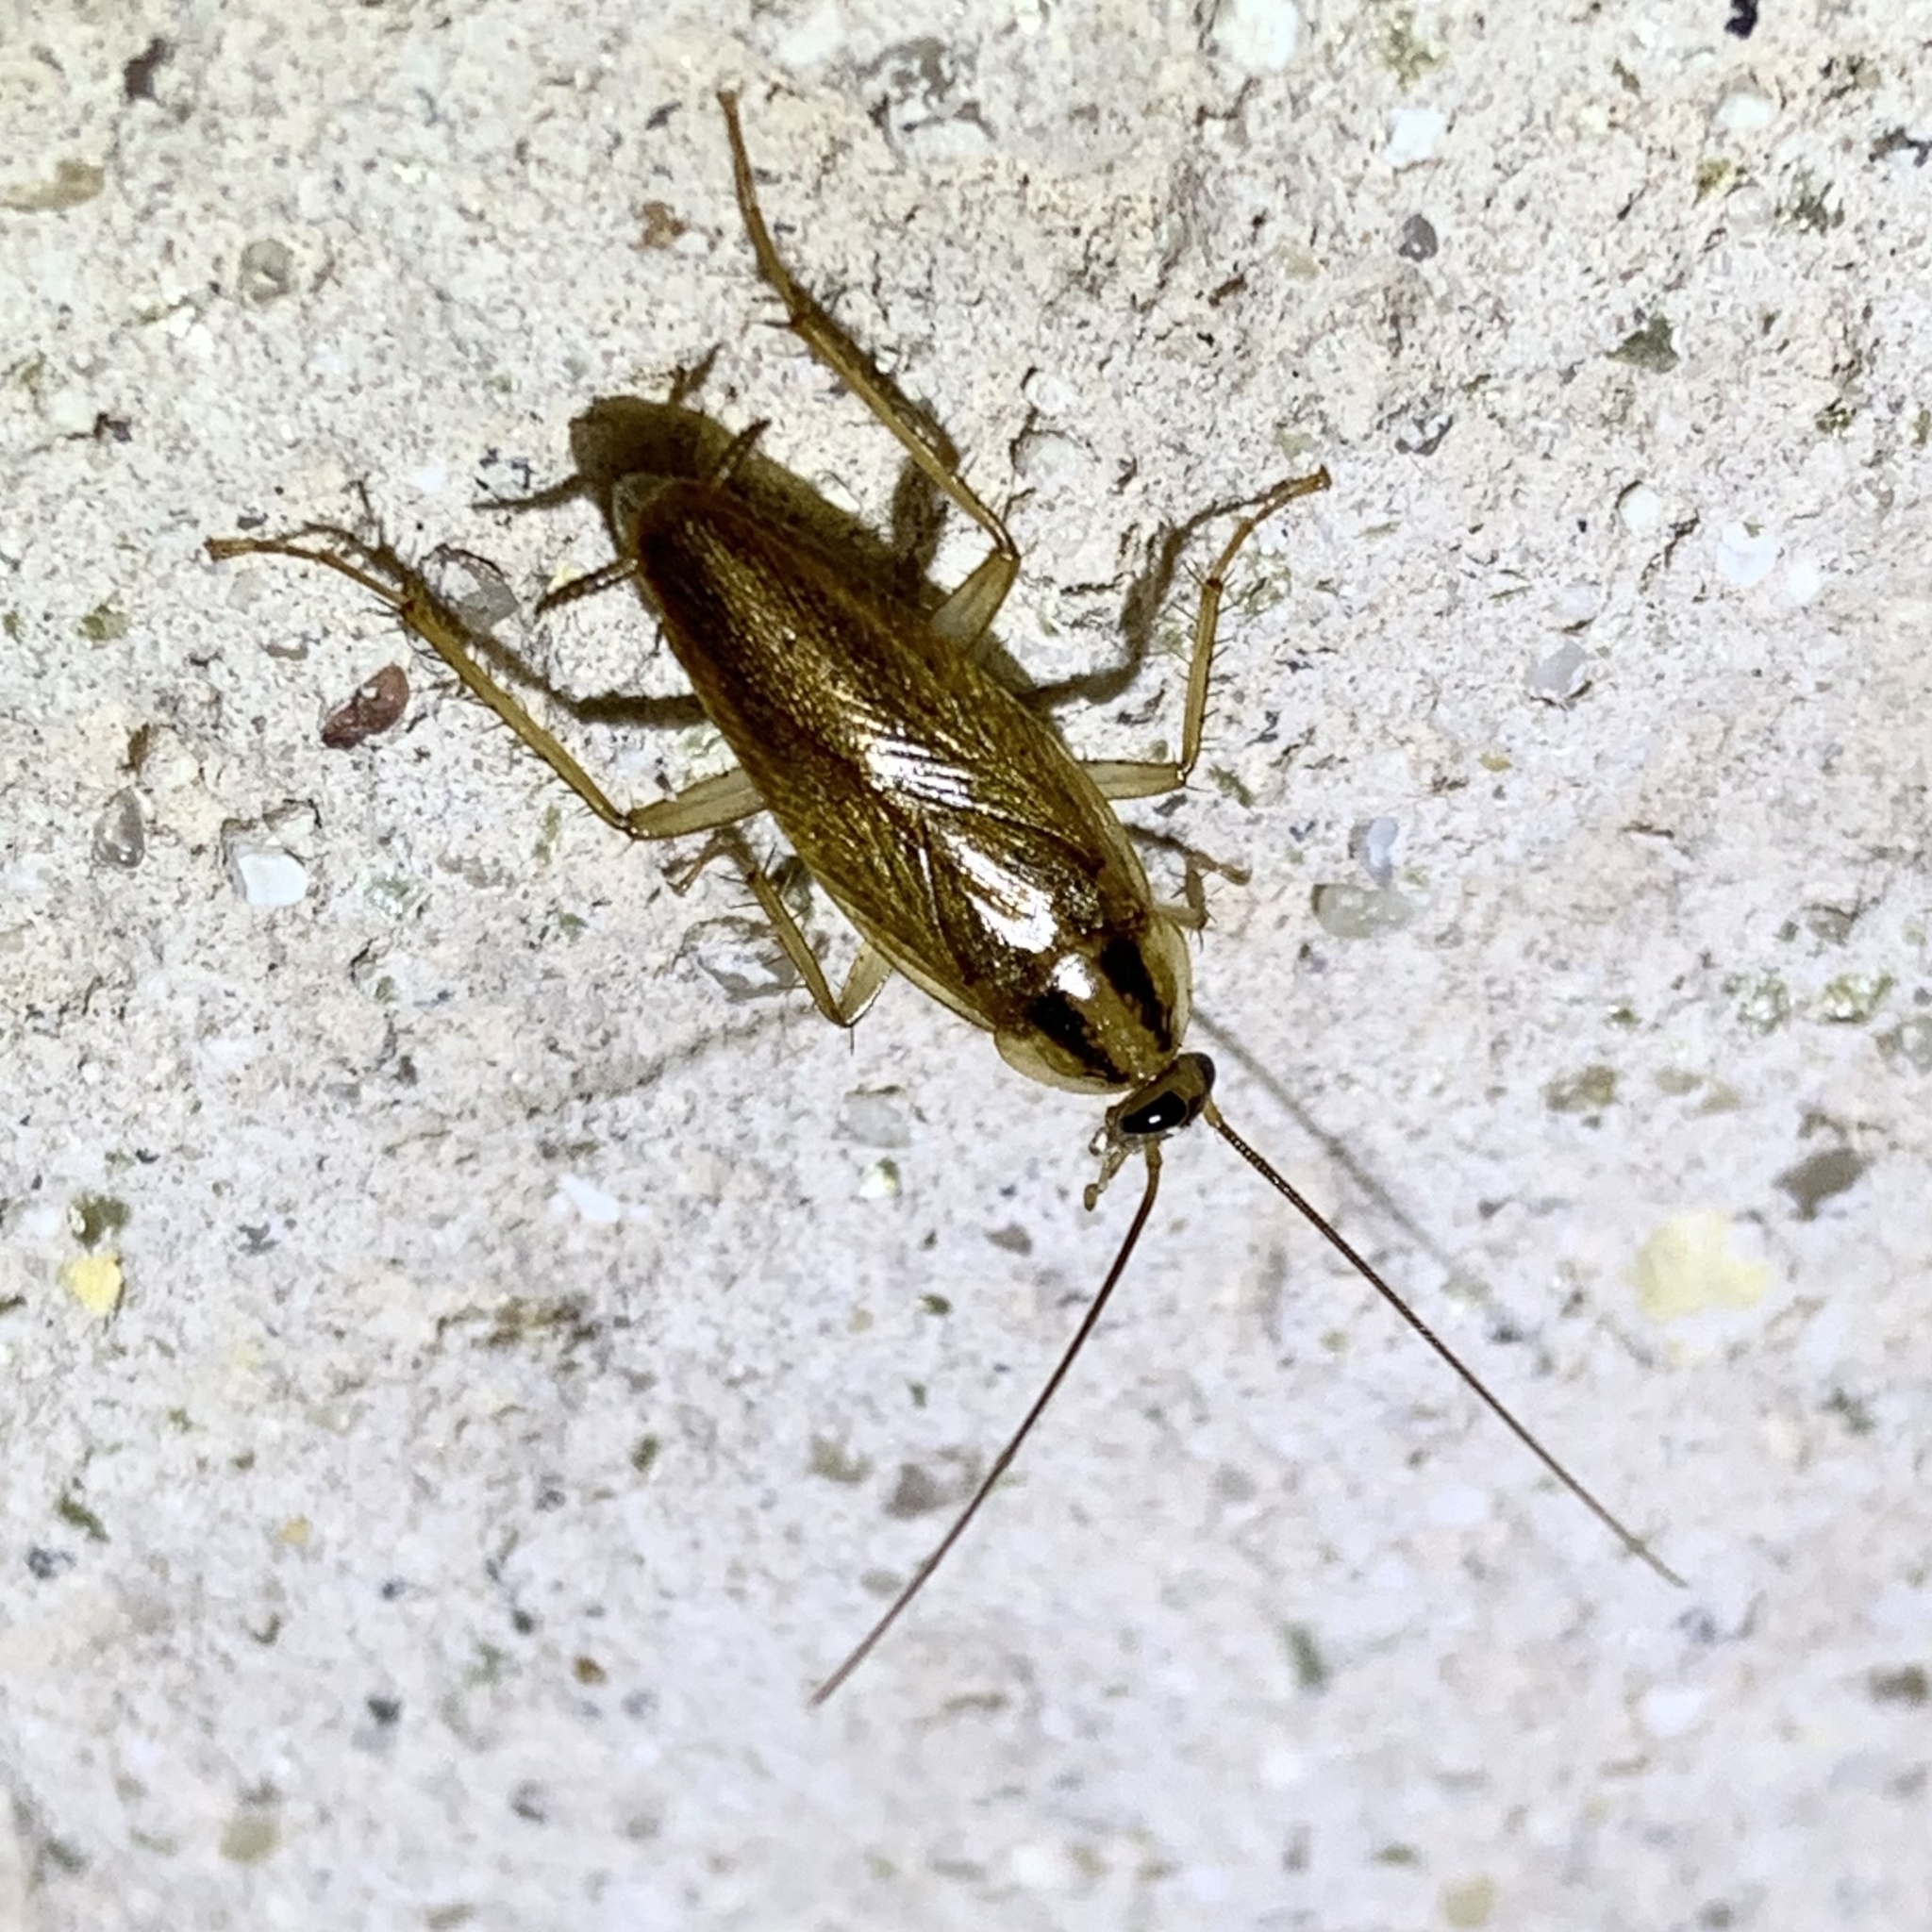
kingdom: Animalia
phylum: Arthropoda
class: Insecta
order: Blattodea
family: Ectobiidae
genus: Blattella
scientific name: Blattella germanica
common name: German cockroach
